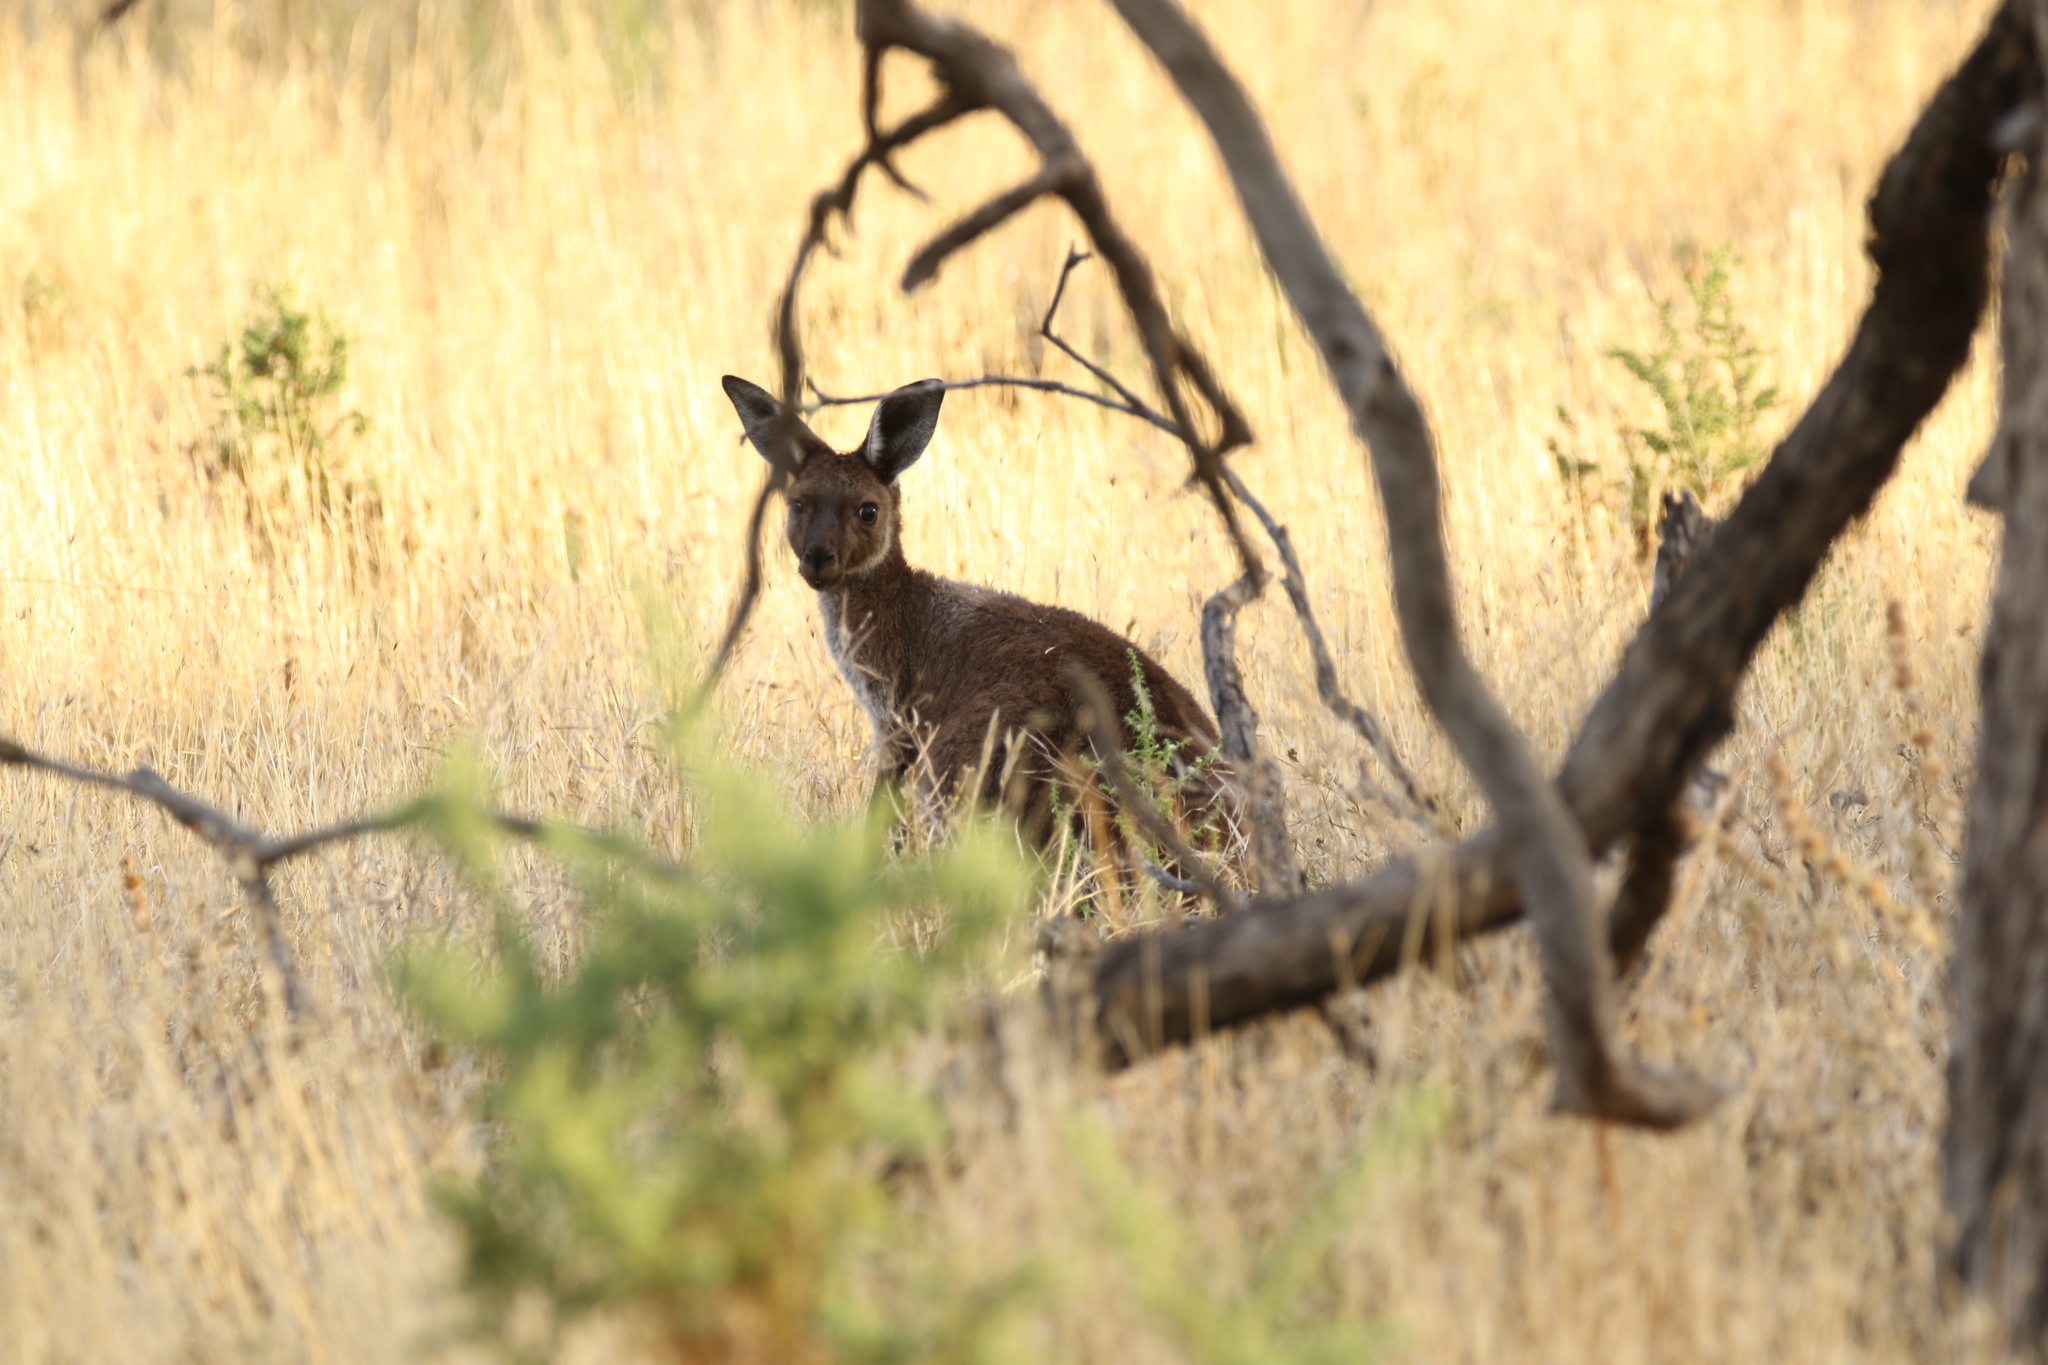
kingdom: Animalia
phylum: Chordata
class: Mammalia
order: Diprotodontia
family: Macropodidae
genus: Macropus
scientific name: Macropus fuliginosus
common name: Western grey kangaroo
